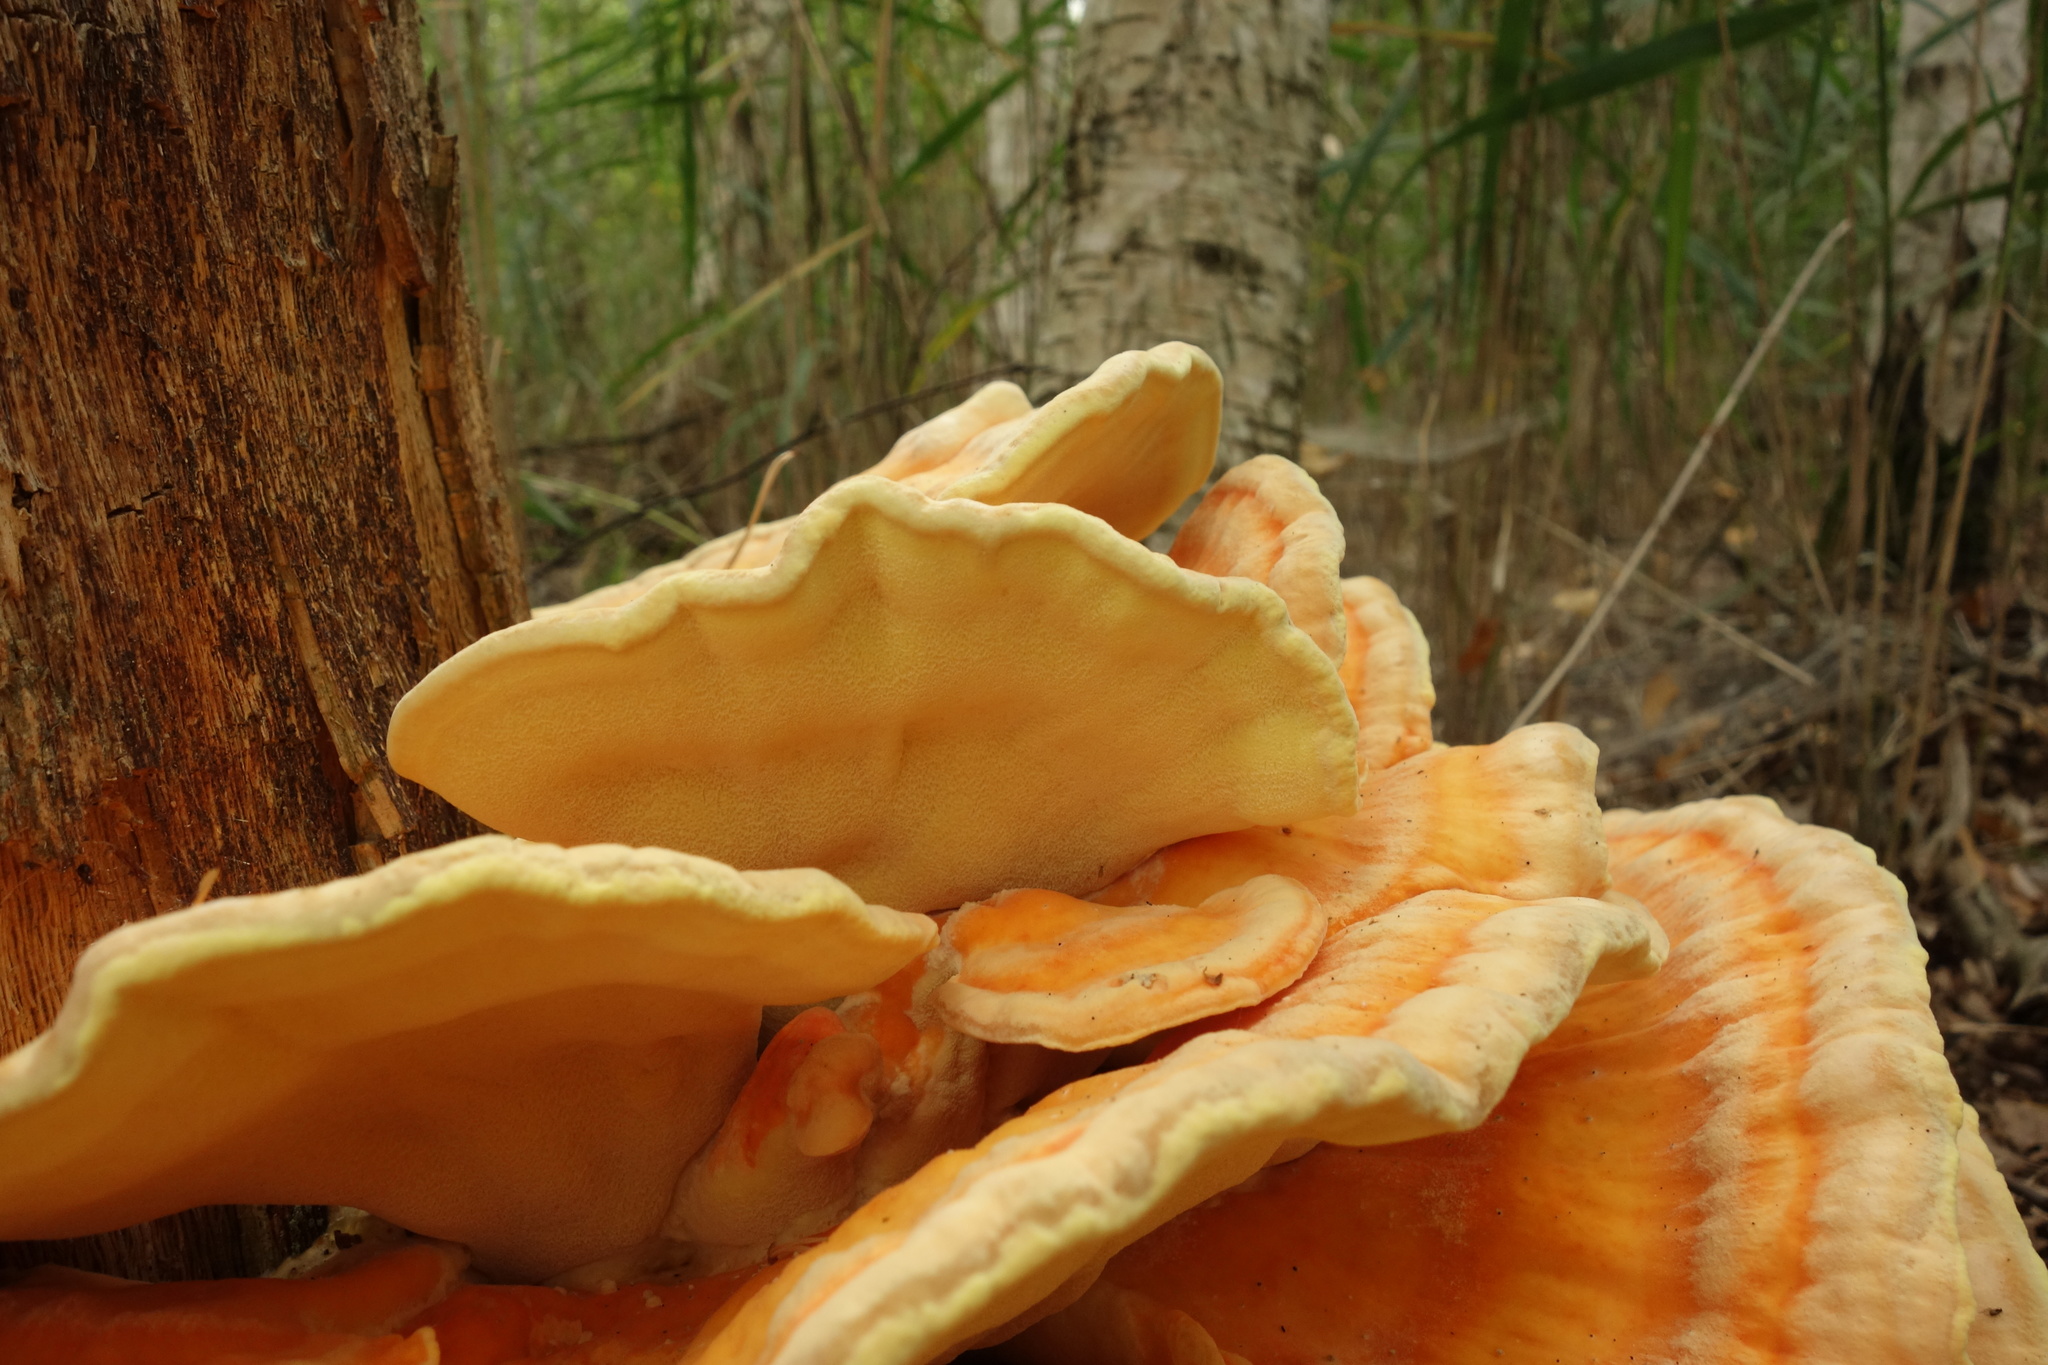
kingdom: Fungi
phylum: Basidiomycota
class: Agaricomycetes
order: Polyporales
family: Laetiporaceae
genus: Laetiporus
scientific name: Laetiporus sulphureus
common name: Chicken of the woods
